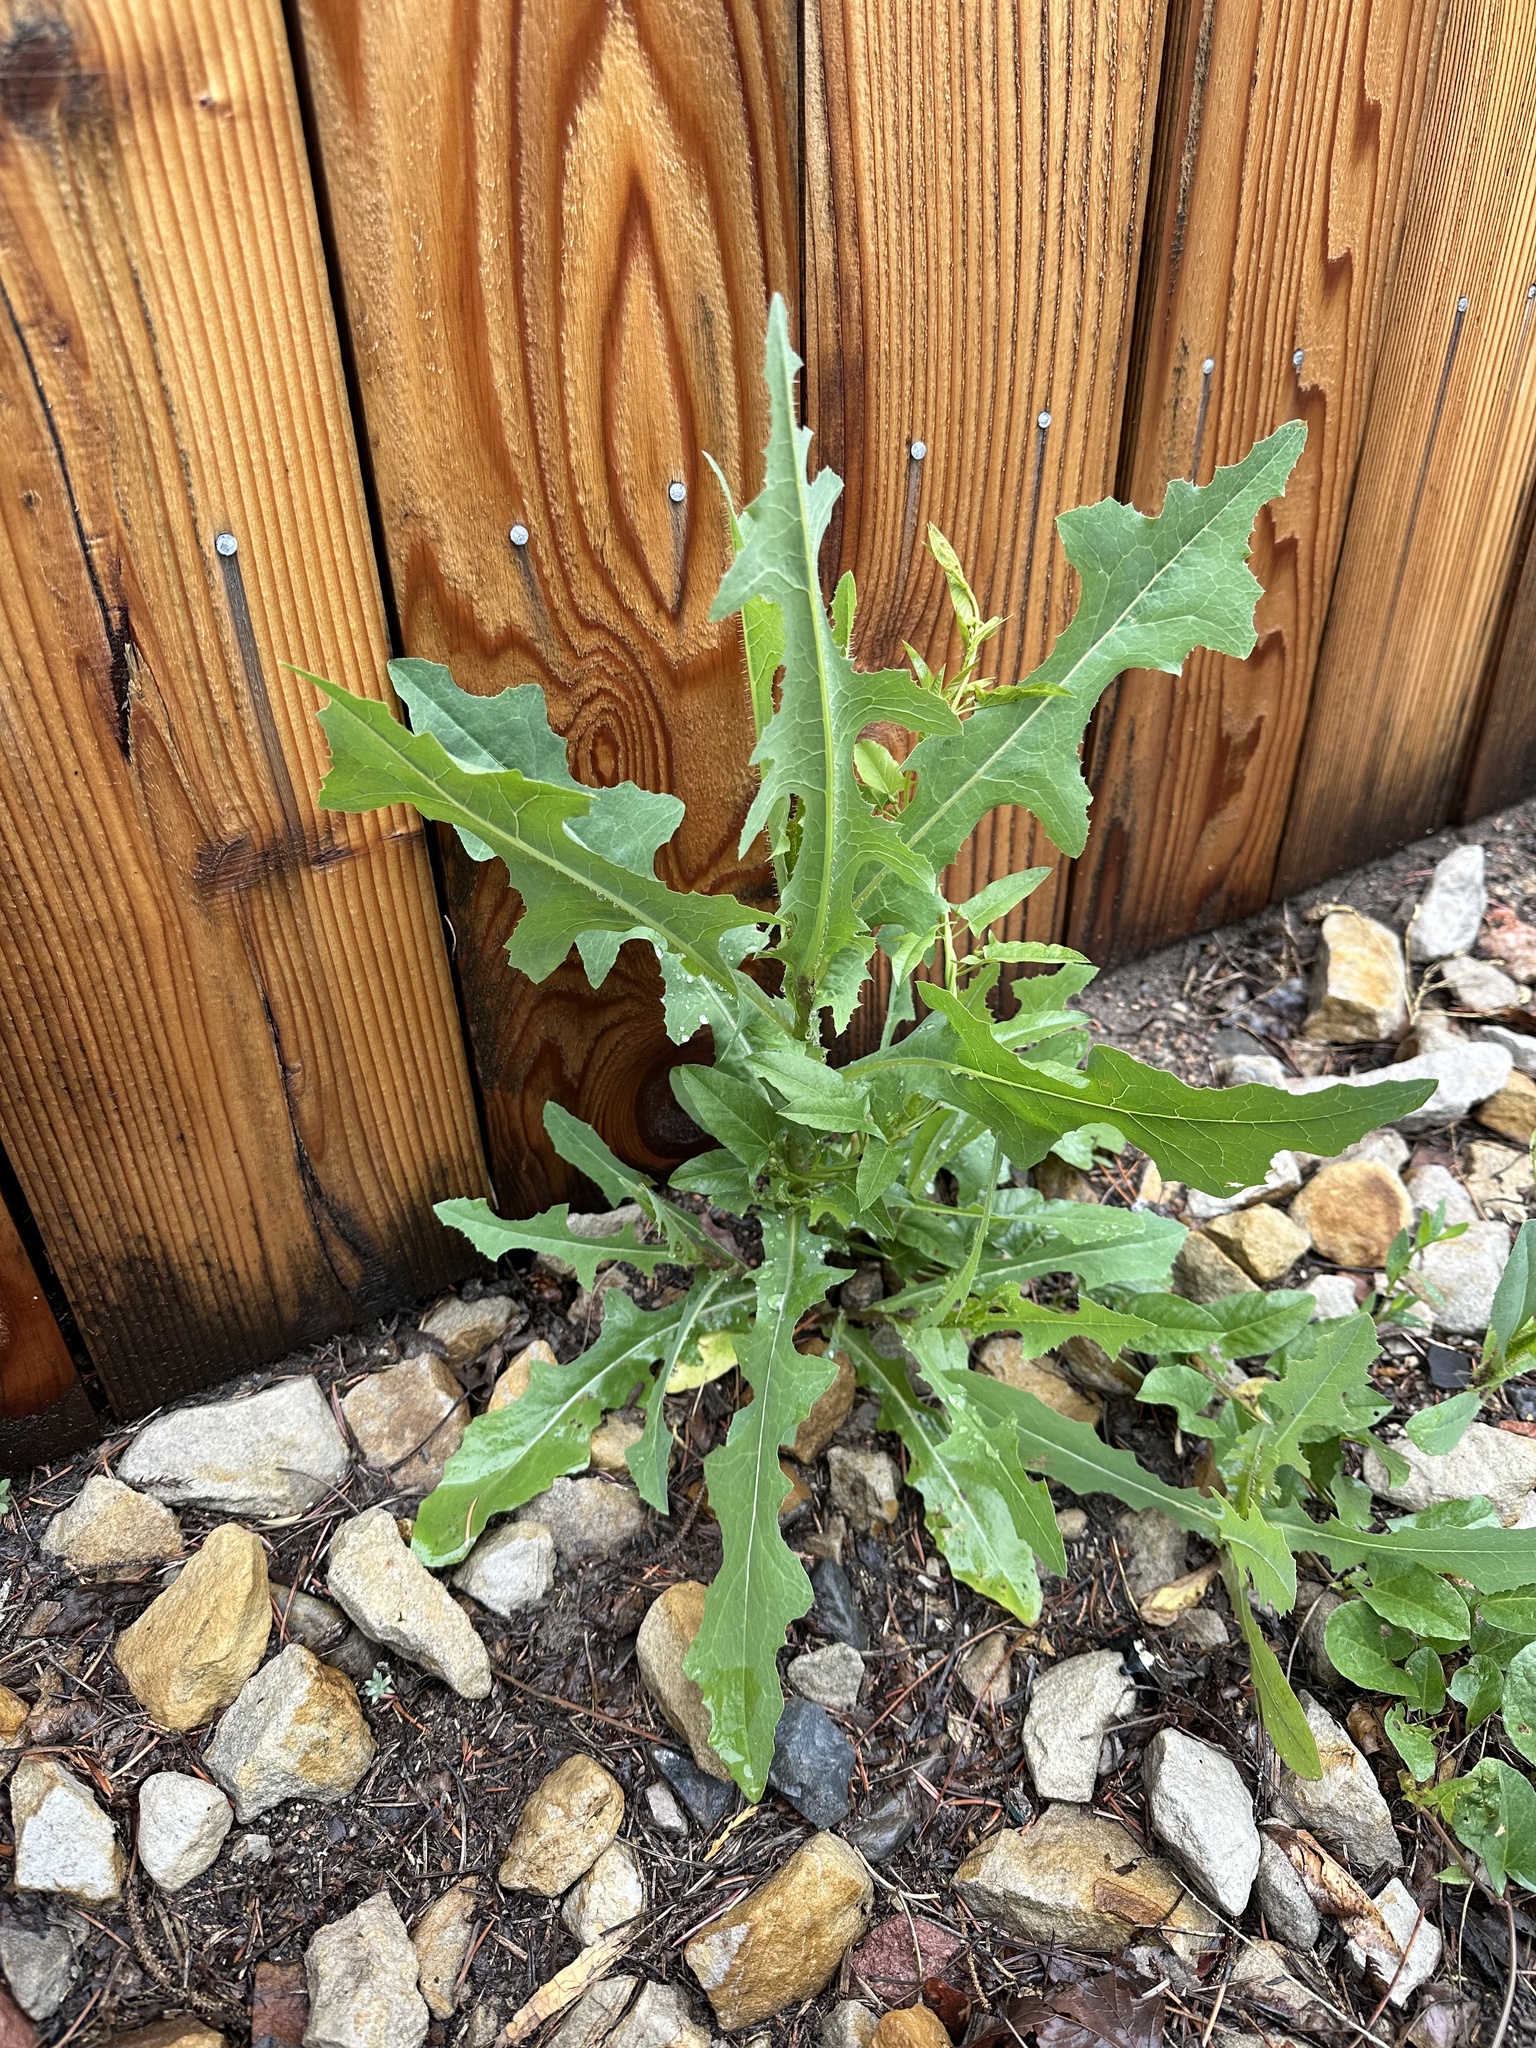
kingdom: Plantae
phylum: Tracheophyta
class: Magnoliopsida
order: Asterales
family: Asteraceae
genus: Lactuca
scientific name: Lactuca serriola
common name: Prickly lettuce
